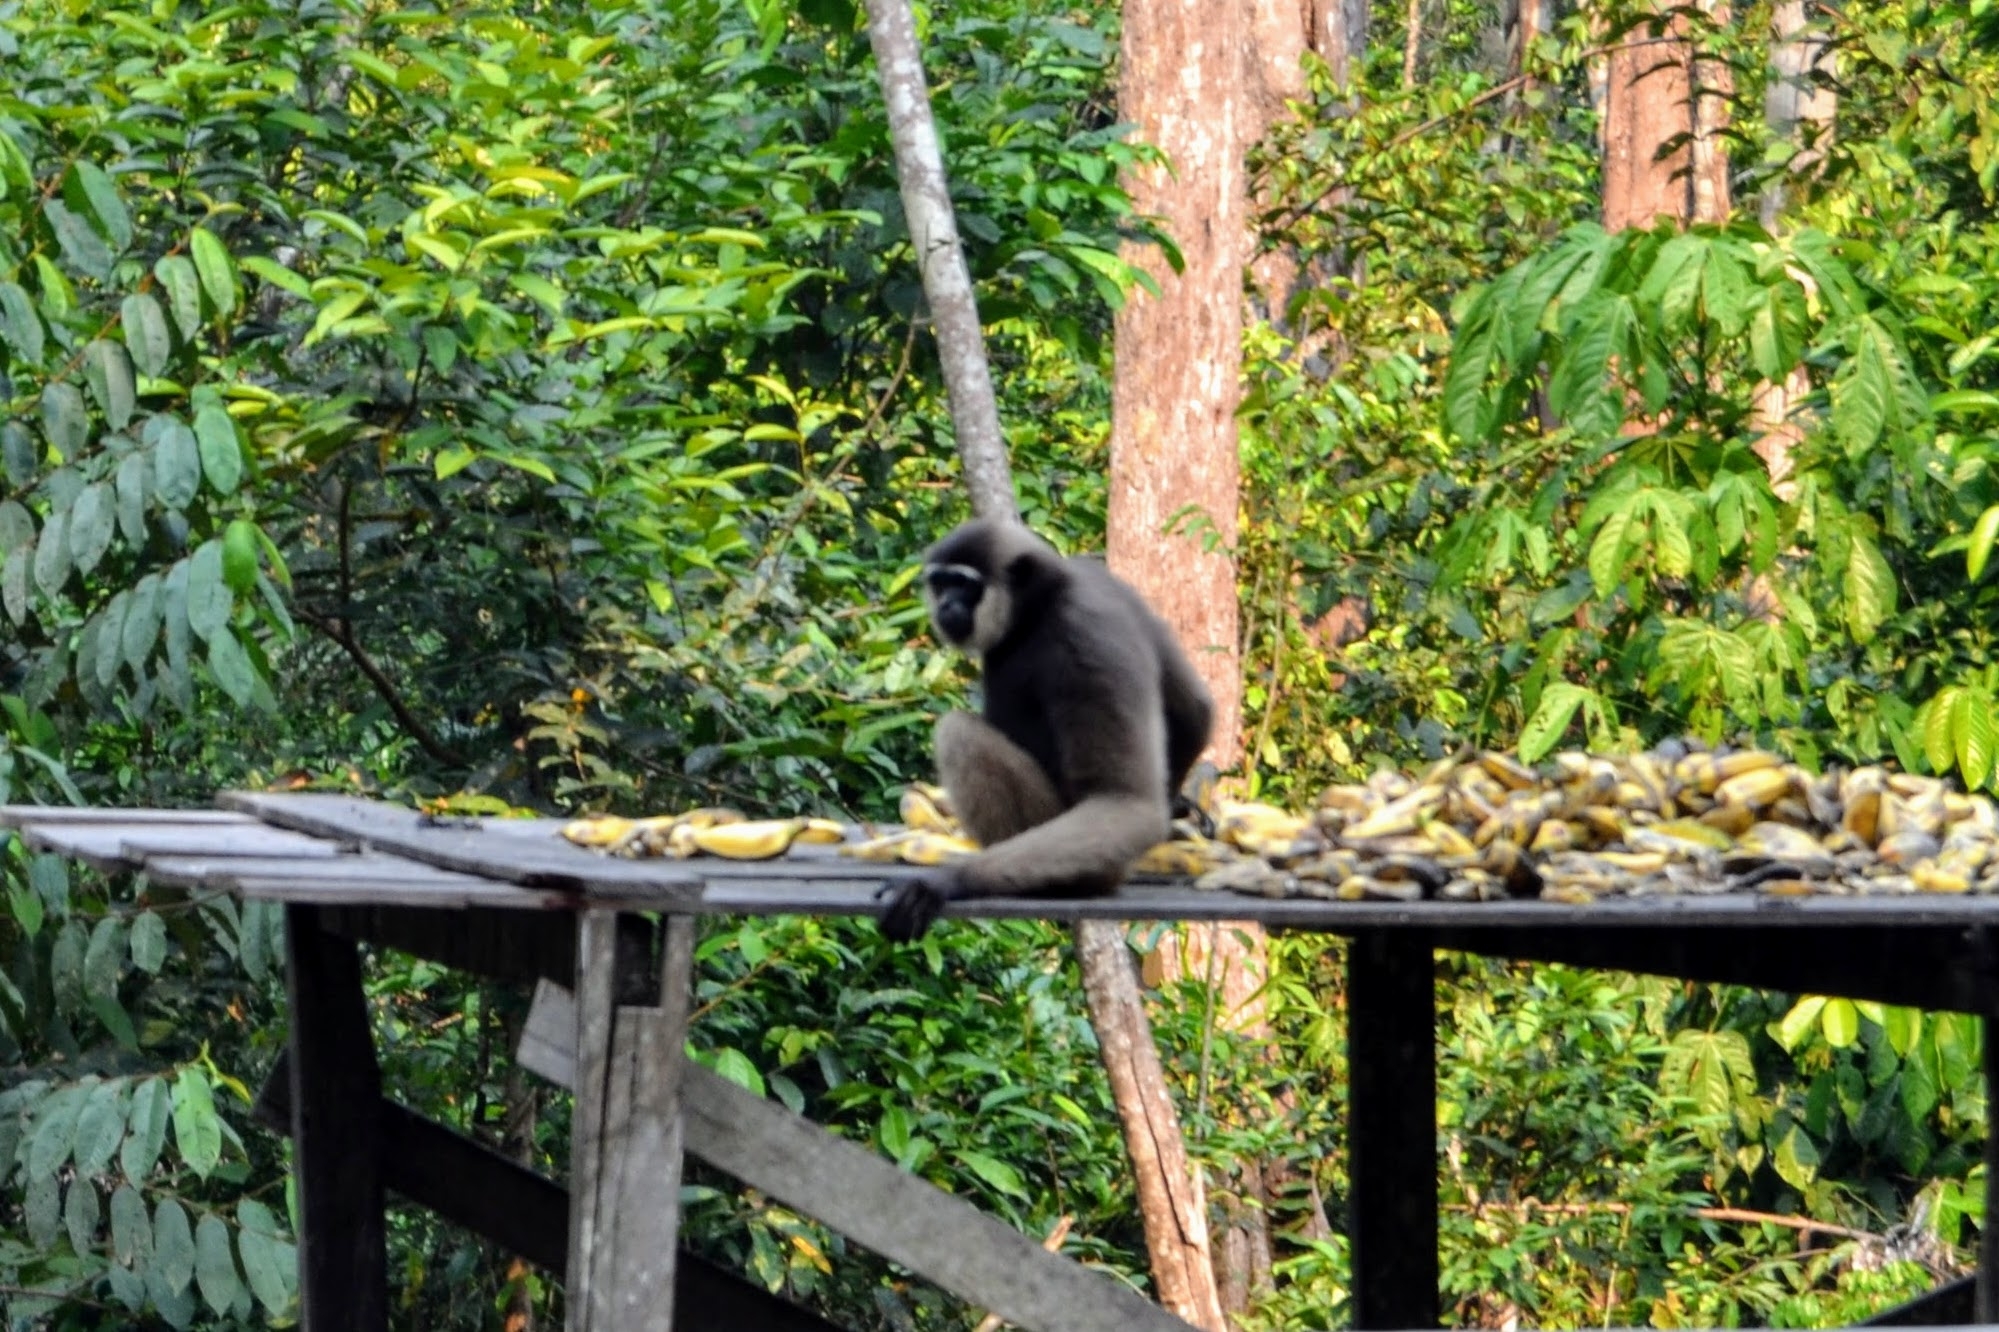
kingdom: Animalia
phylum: Chordata
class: Mammalia
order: Primates
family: Hylobatidae
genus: Hylobates
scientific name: Hylobates albibarbis
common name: Bornean white-bearded gibbon
